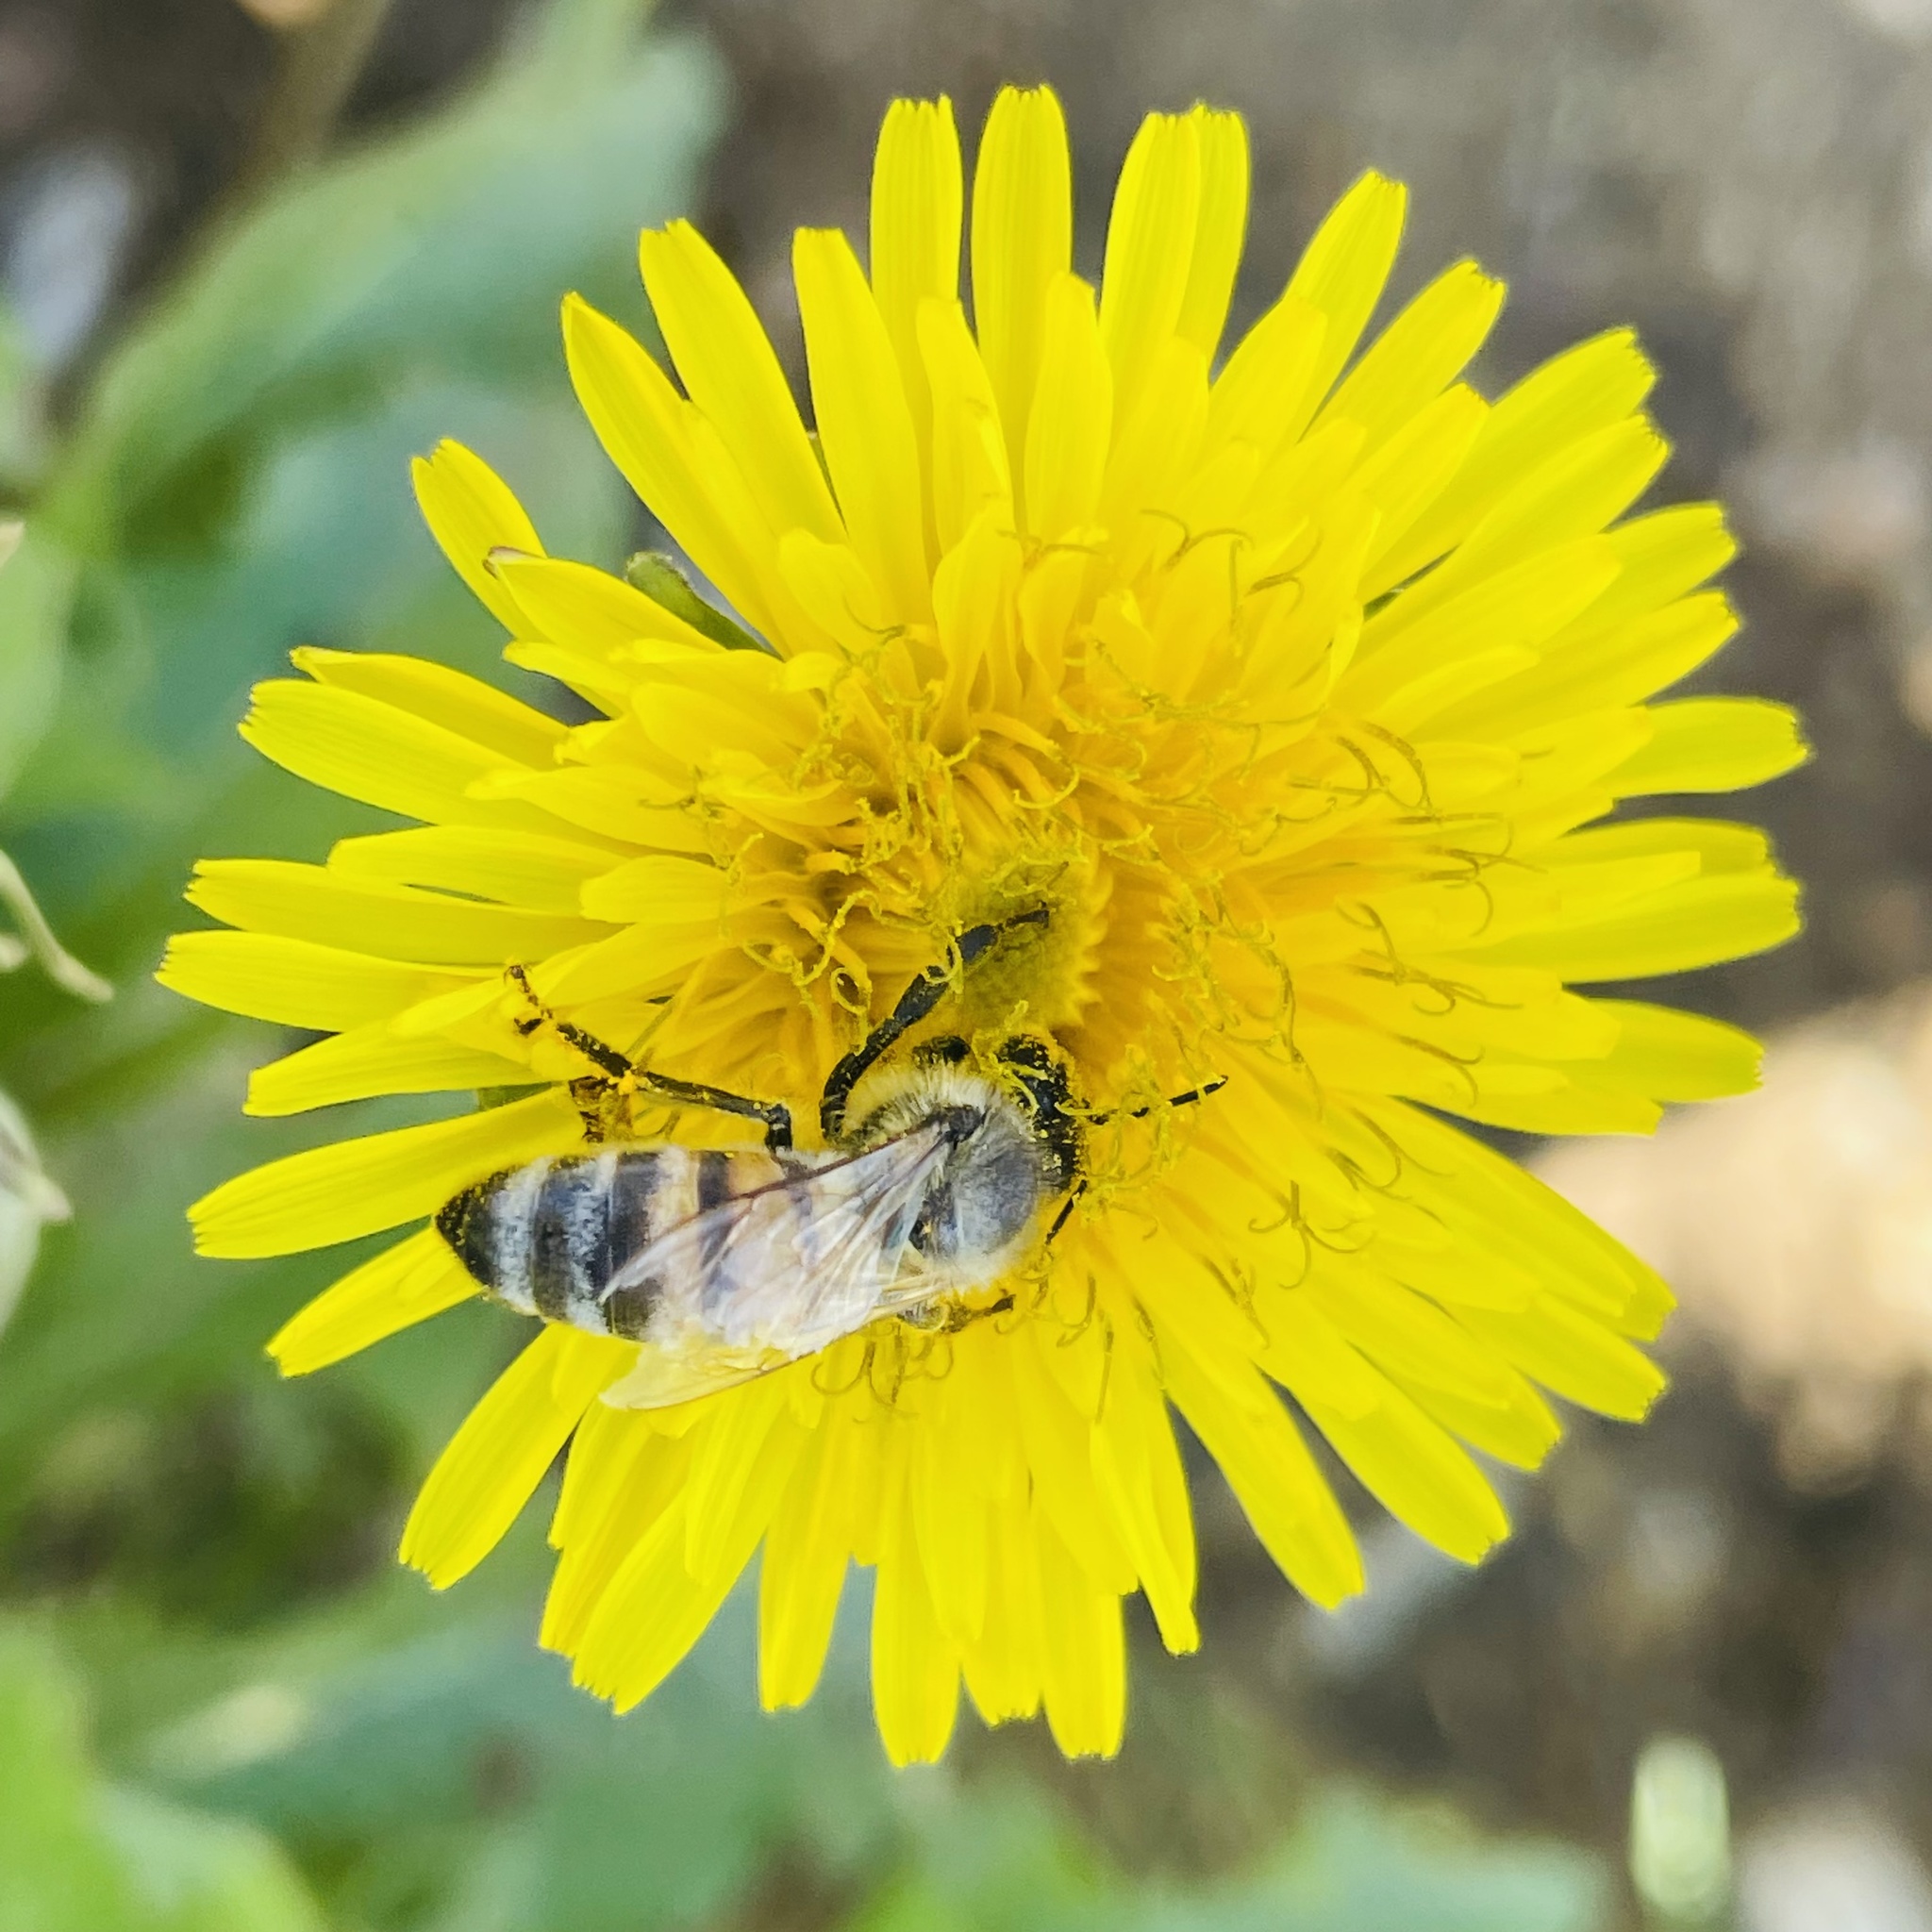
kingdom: Animalia
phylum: Arthropoda
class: Insecta
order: Hymenoptera
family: Apidae
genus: Apis
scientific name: Apis mellifera
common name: Honey bee
